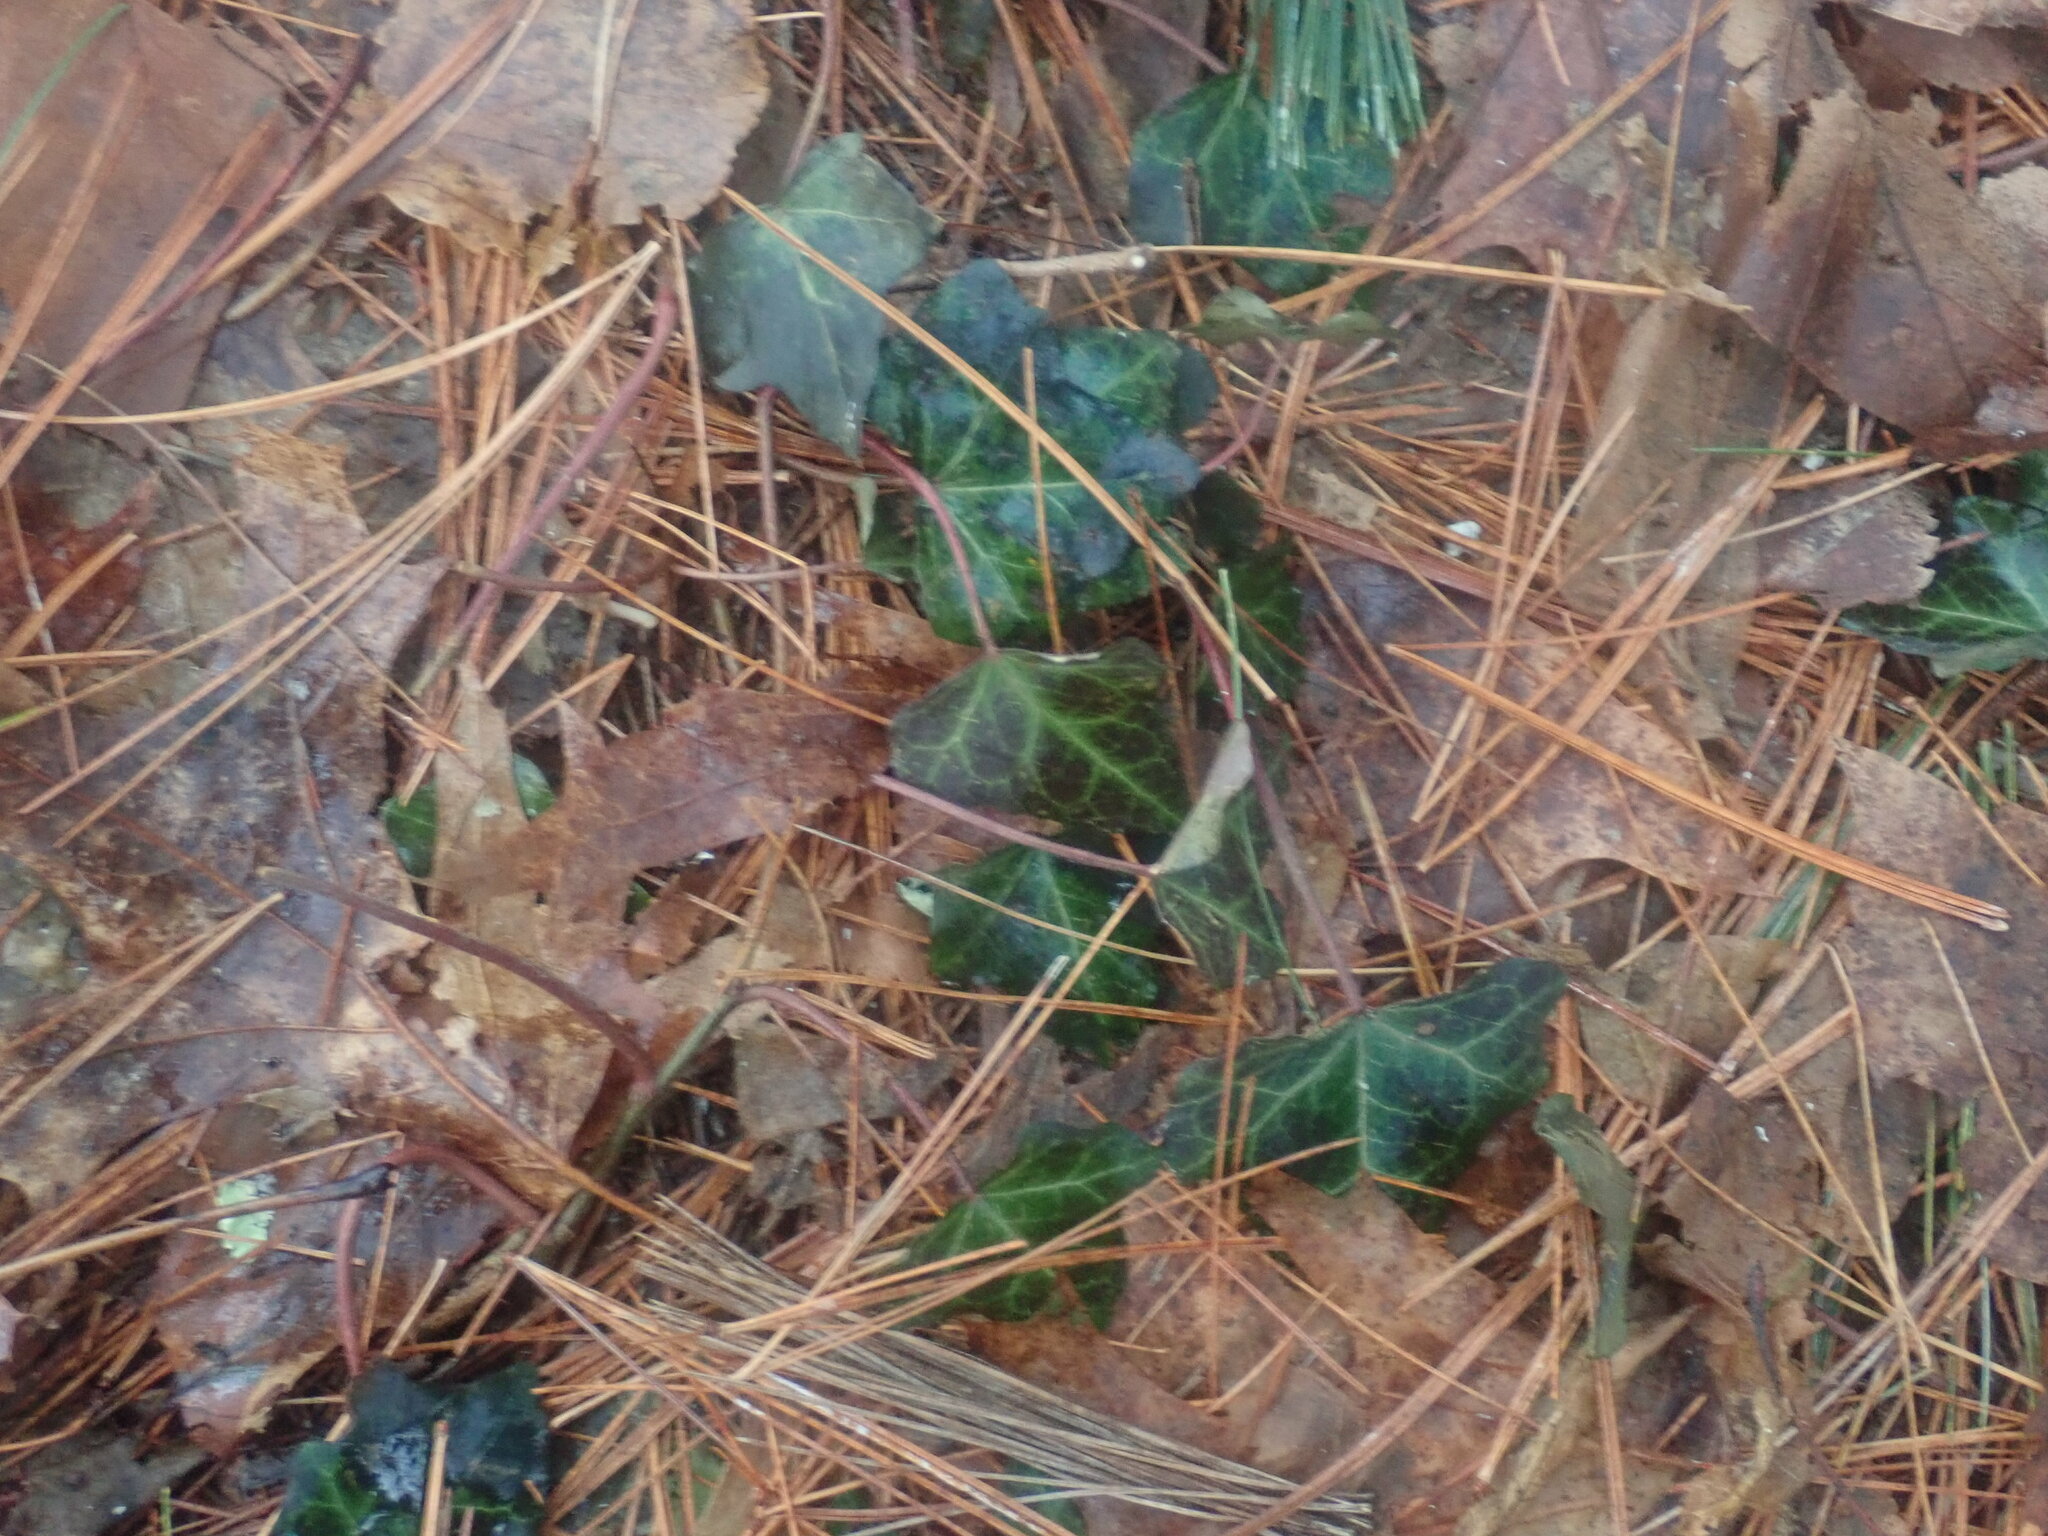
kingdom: Plantae
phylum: Tracheophyta
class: Magnoliopsida
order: Apiales
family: Araliaceae
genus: Hedera
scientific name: Hedera helix
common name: Ivy
